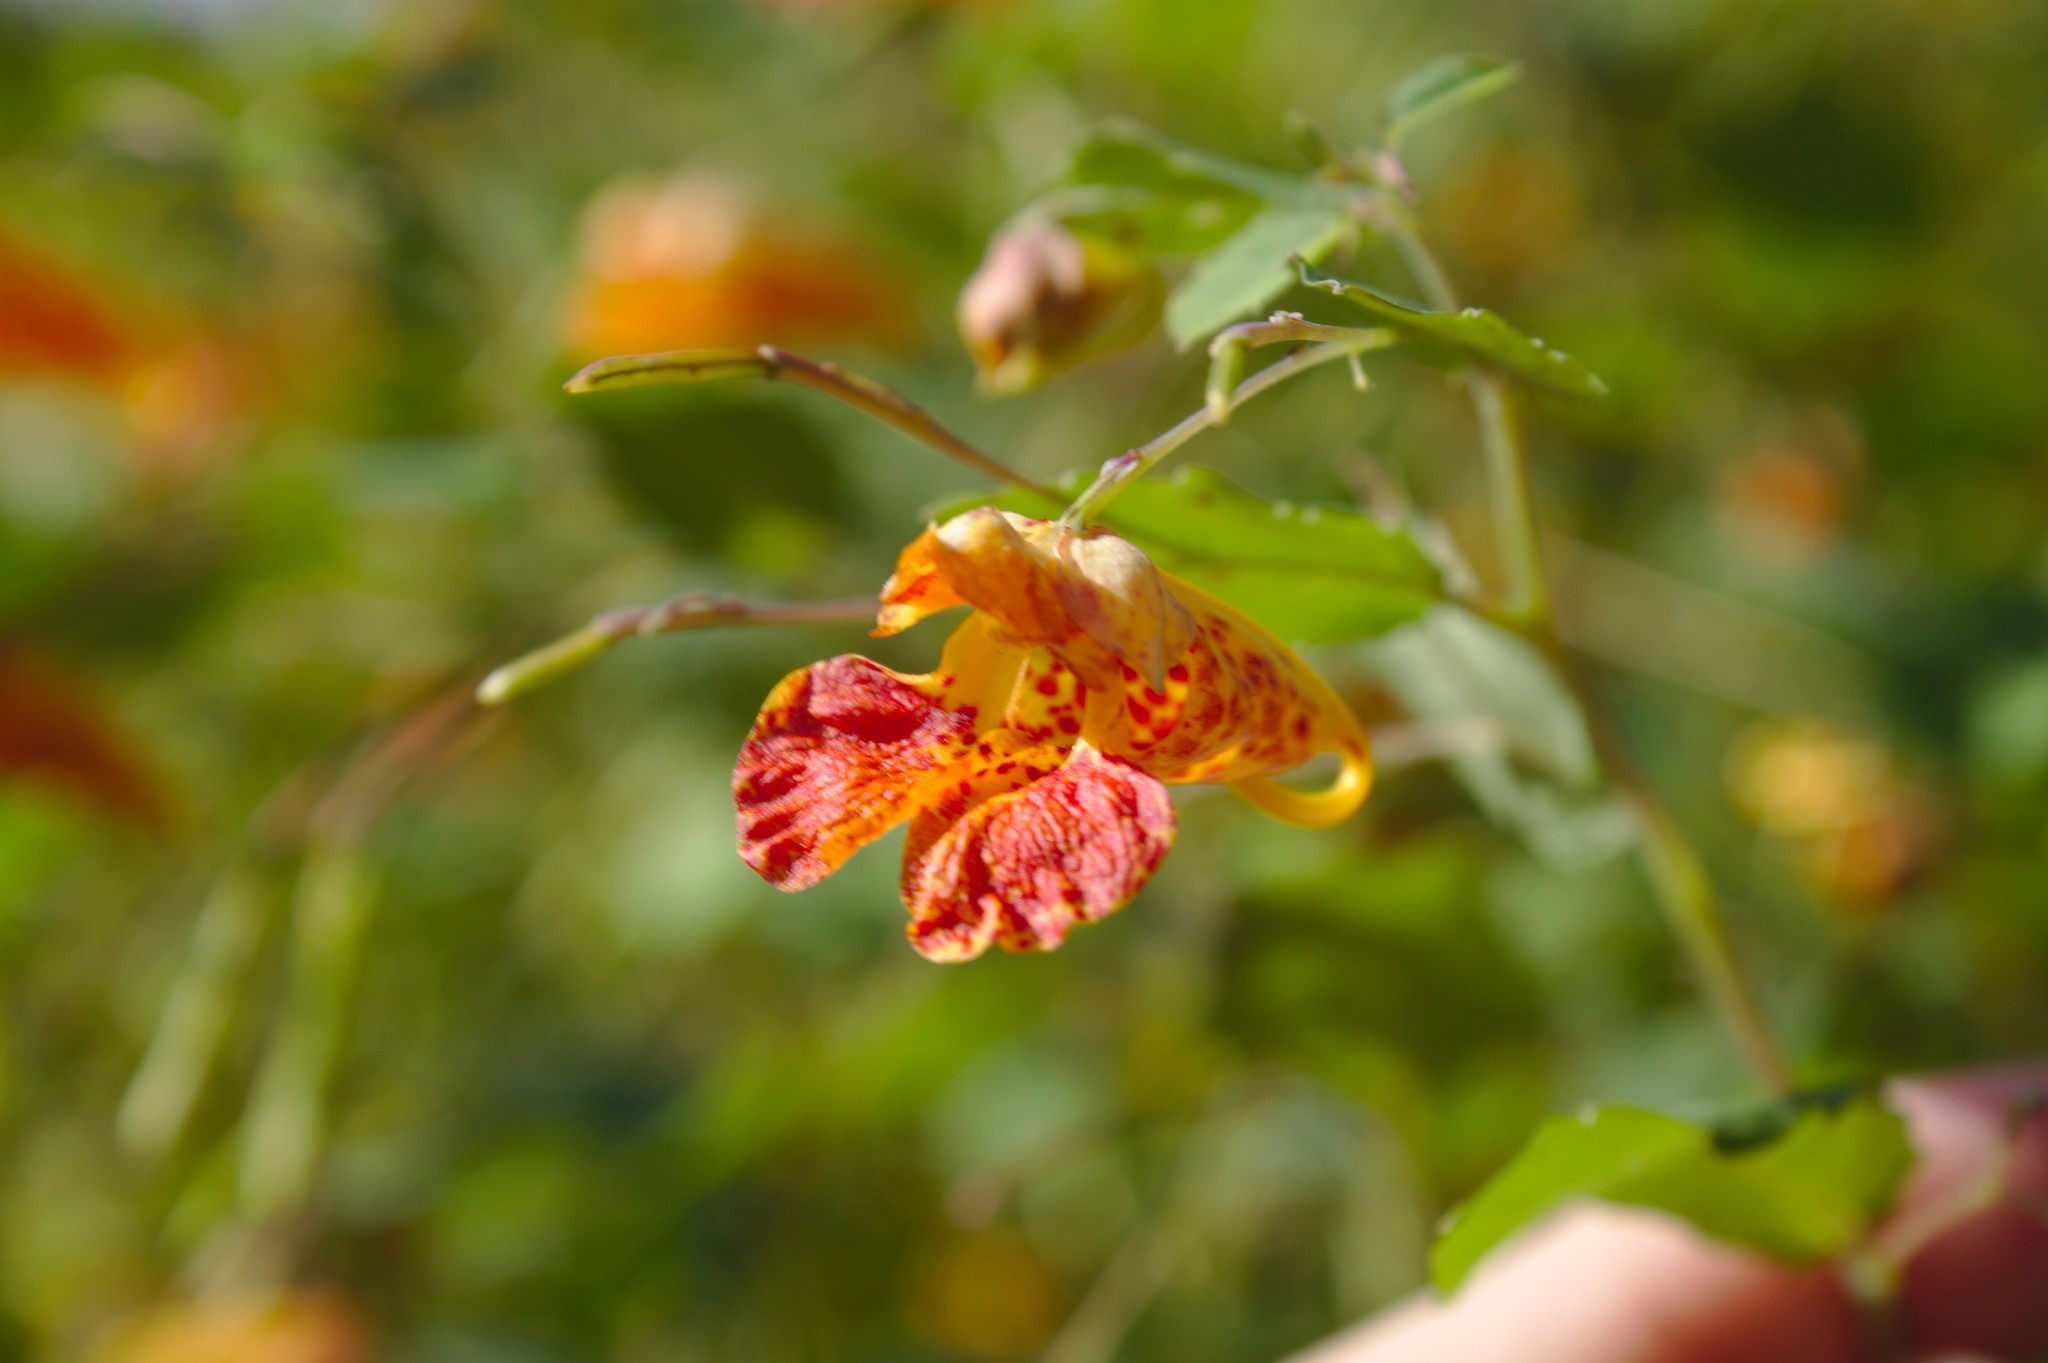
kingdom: Plantae
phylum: Tracheophyta
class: Magnoliopsida
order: Ericales
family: Balsaminaceae
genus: Impatiens
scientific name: Impatiens capensis
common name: Orange balsam
